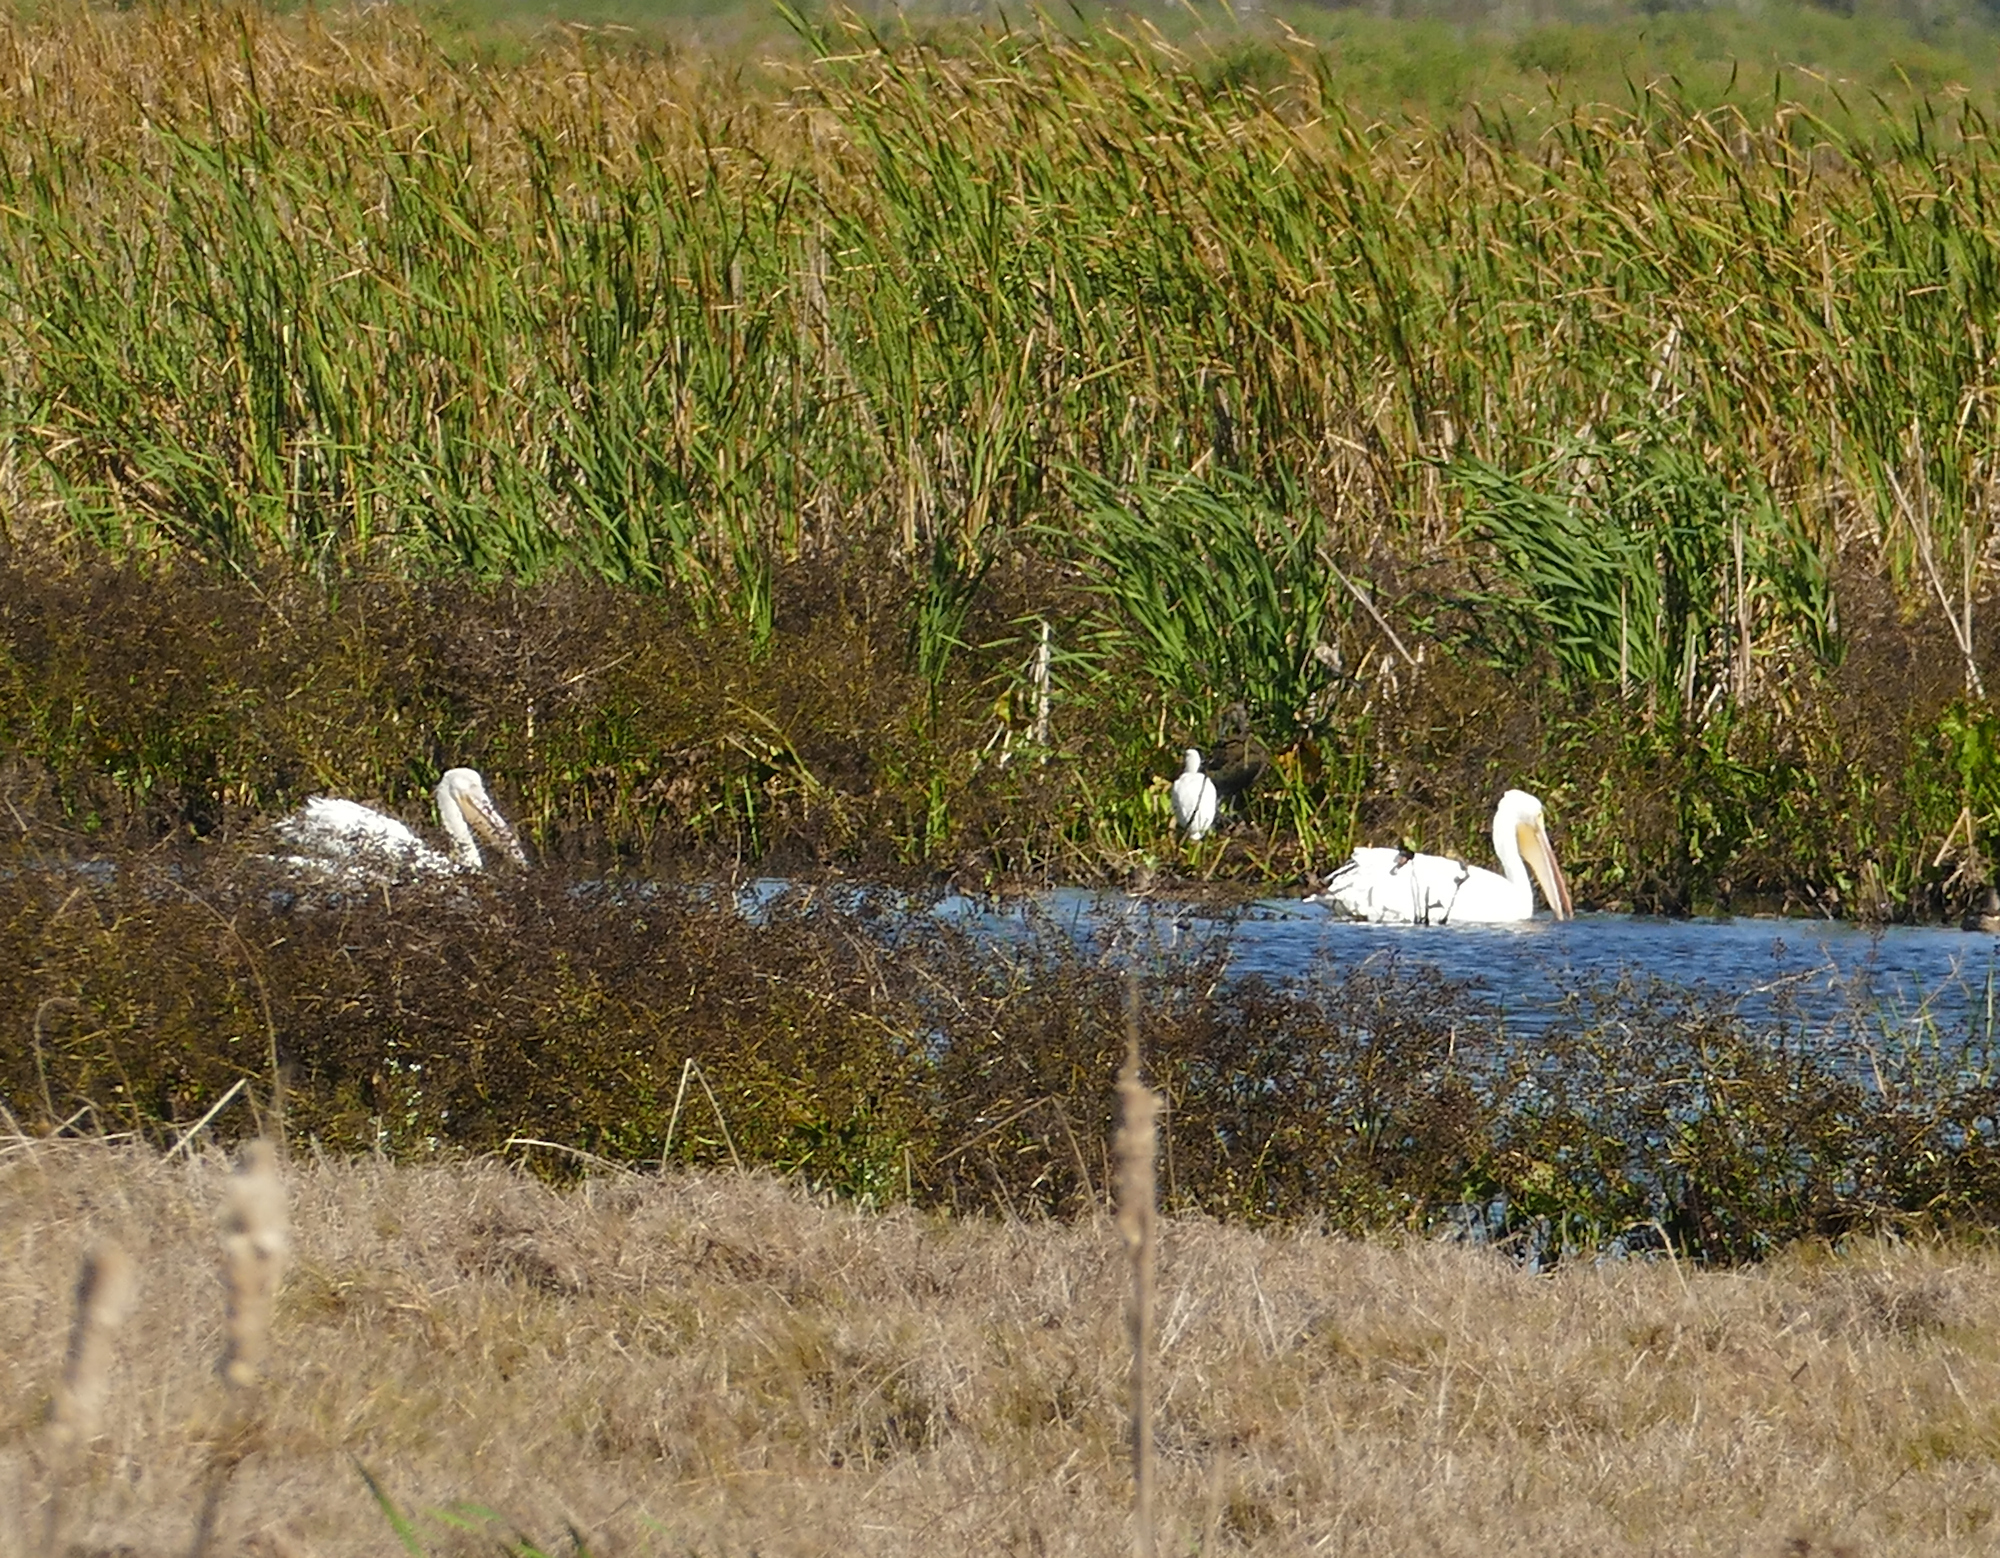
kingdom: Animalia
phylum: Chordata
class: Aves
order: Pelecaniformes
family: Pelecanidae
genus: Pelecanus
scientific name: Pelecanus erythrorhynchos
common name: American white pelican
